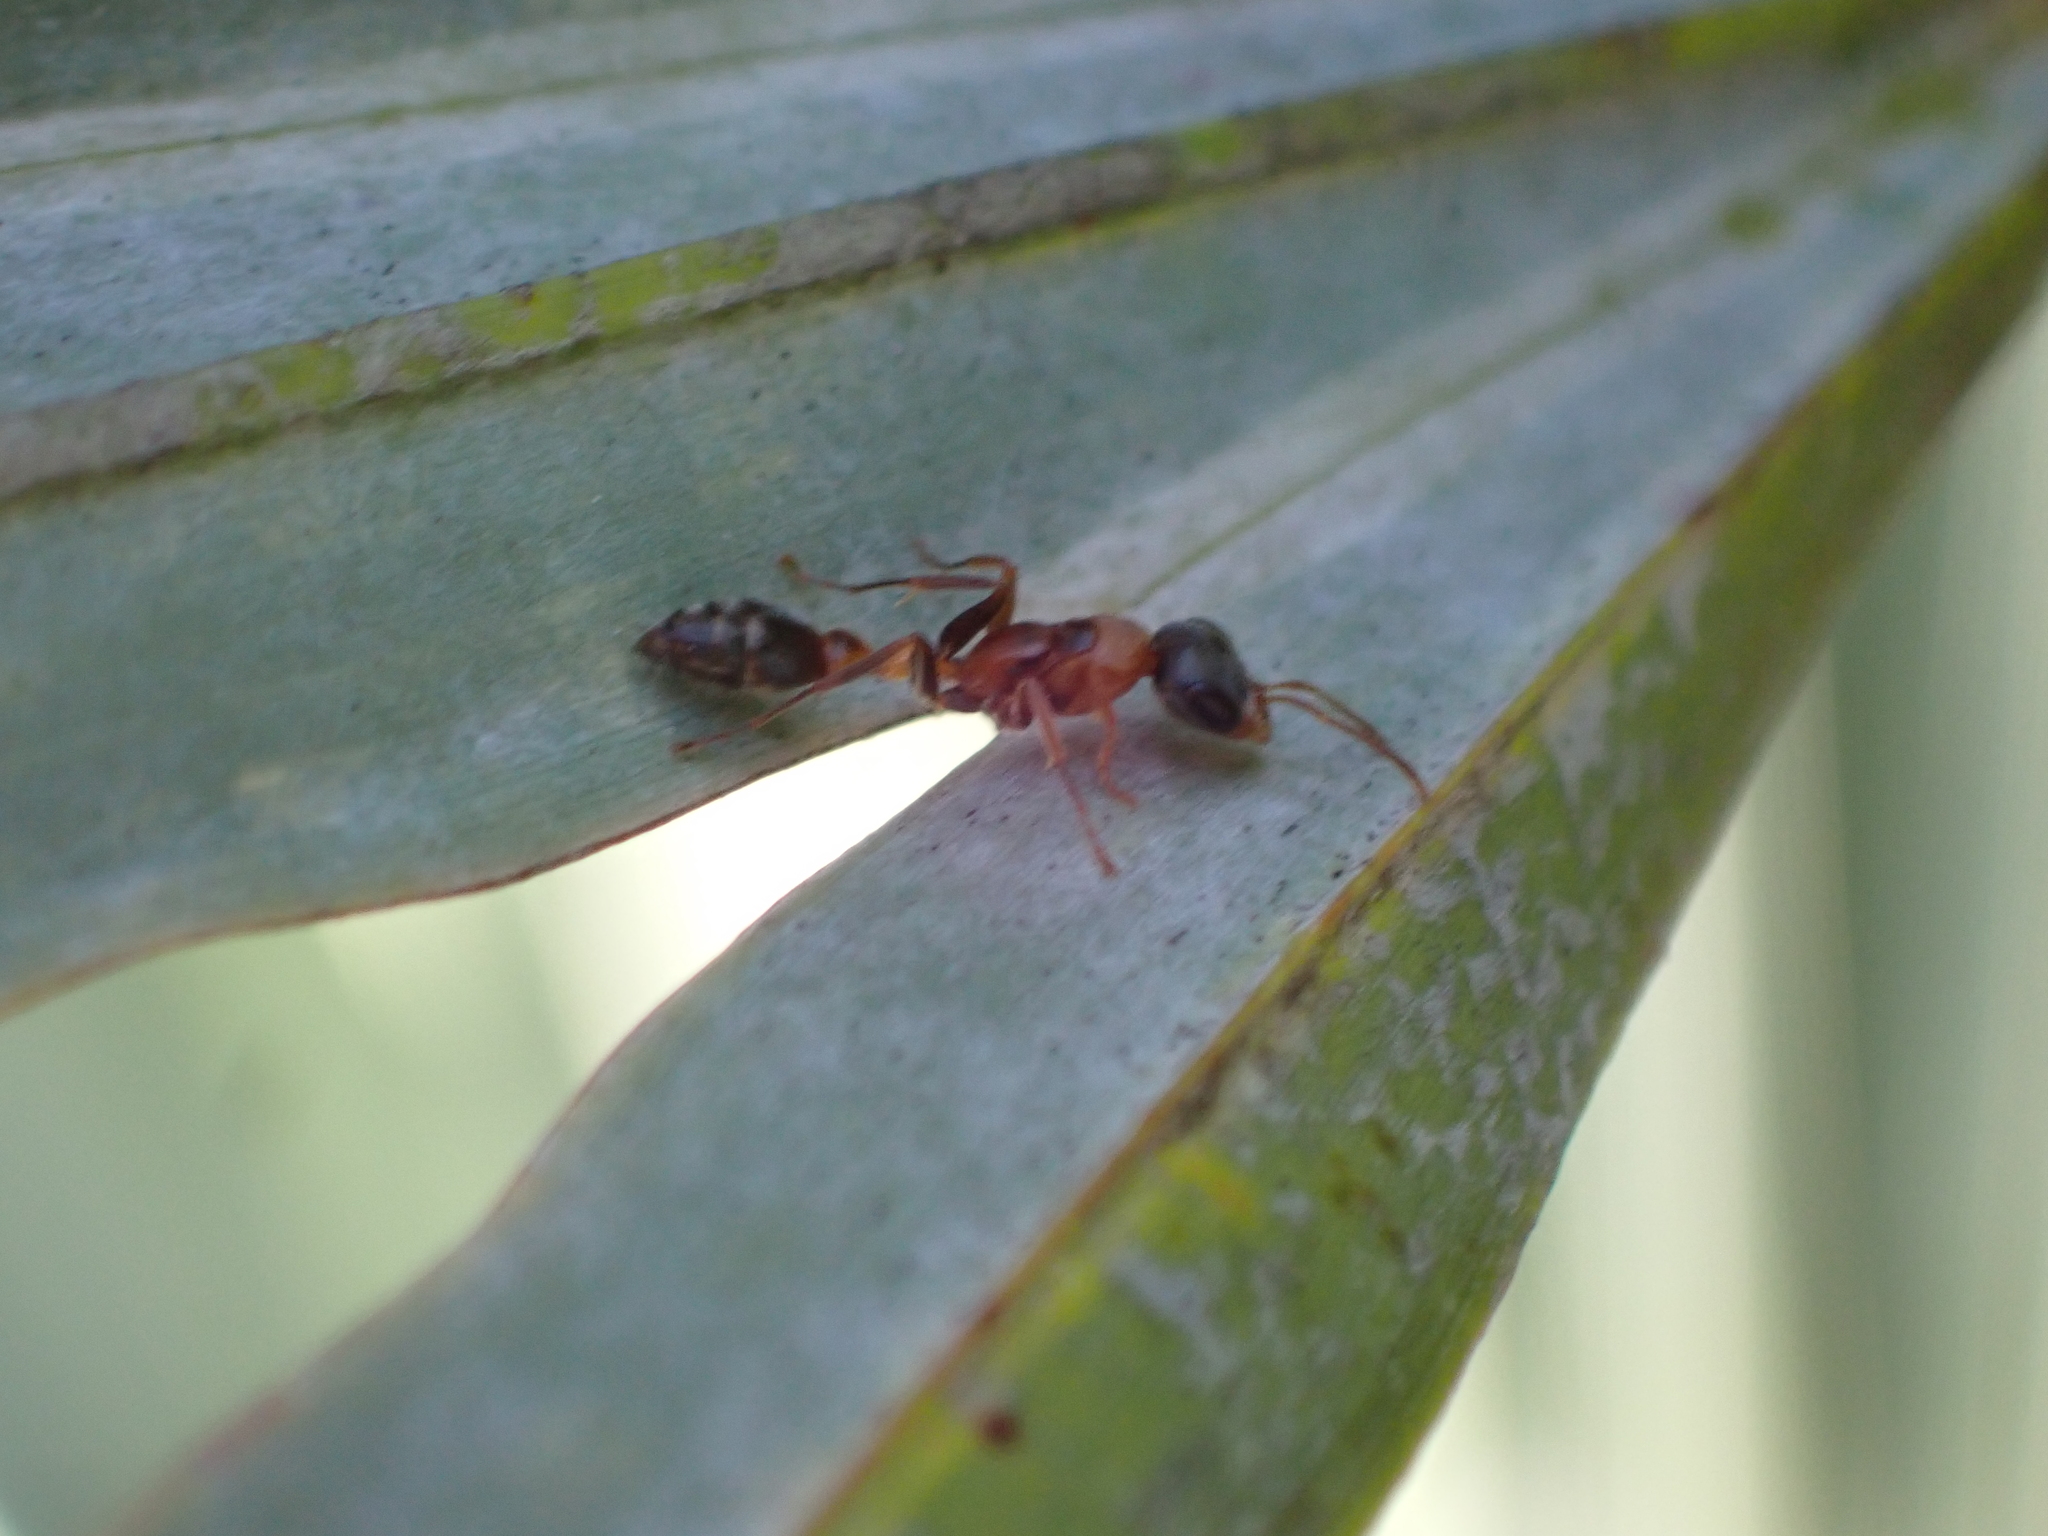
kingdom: Animalia
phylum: Arthropoda
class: Insecta
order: Hymenoptera
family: Formicidae
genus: Pseudomyrmex
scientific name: Pseudomyrmex gracilis
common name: Graceful twig ant
